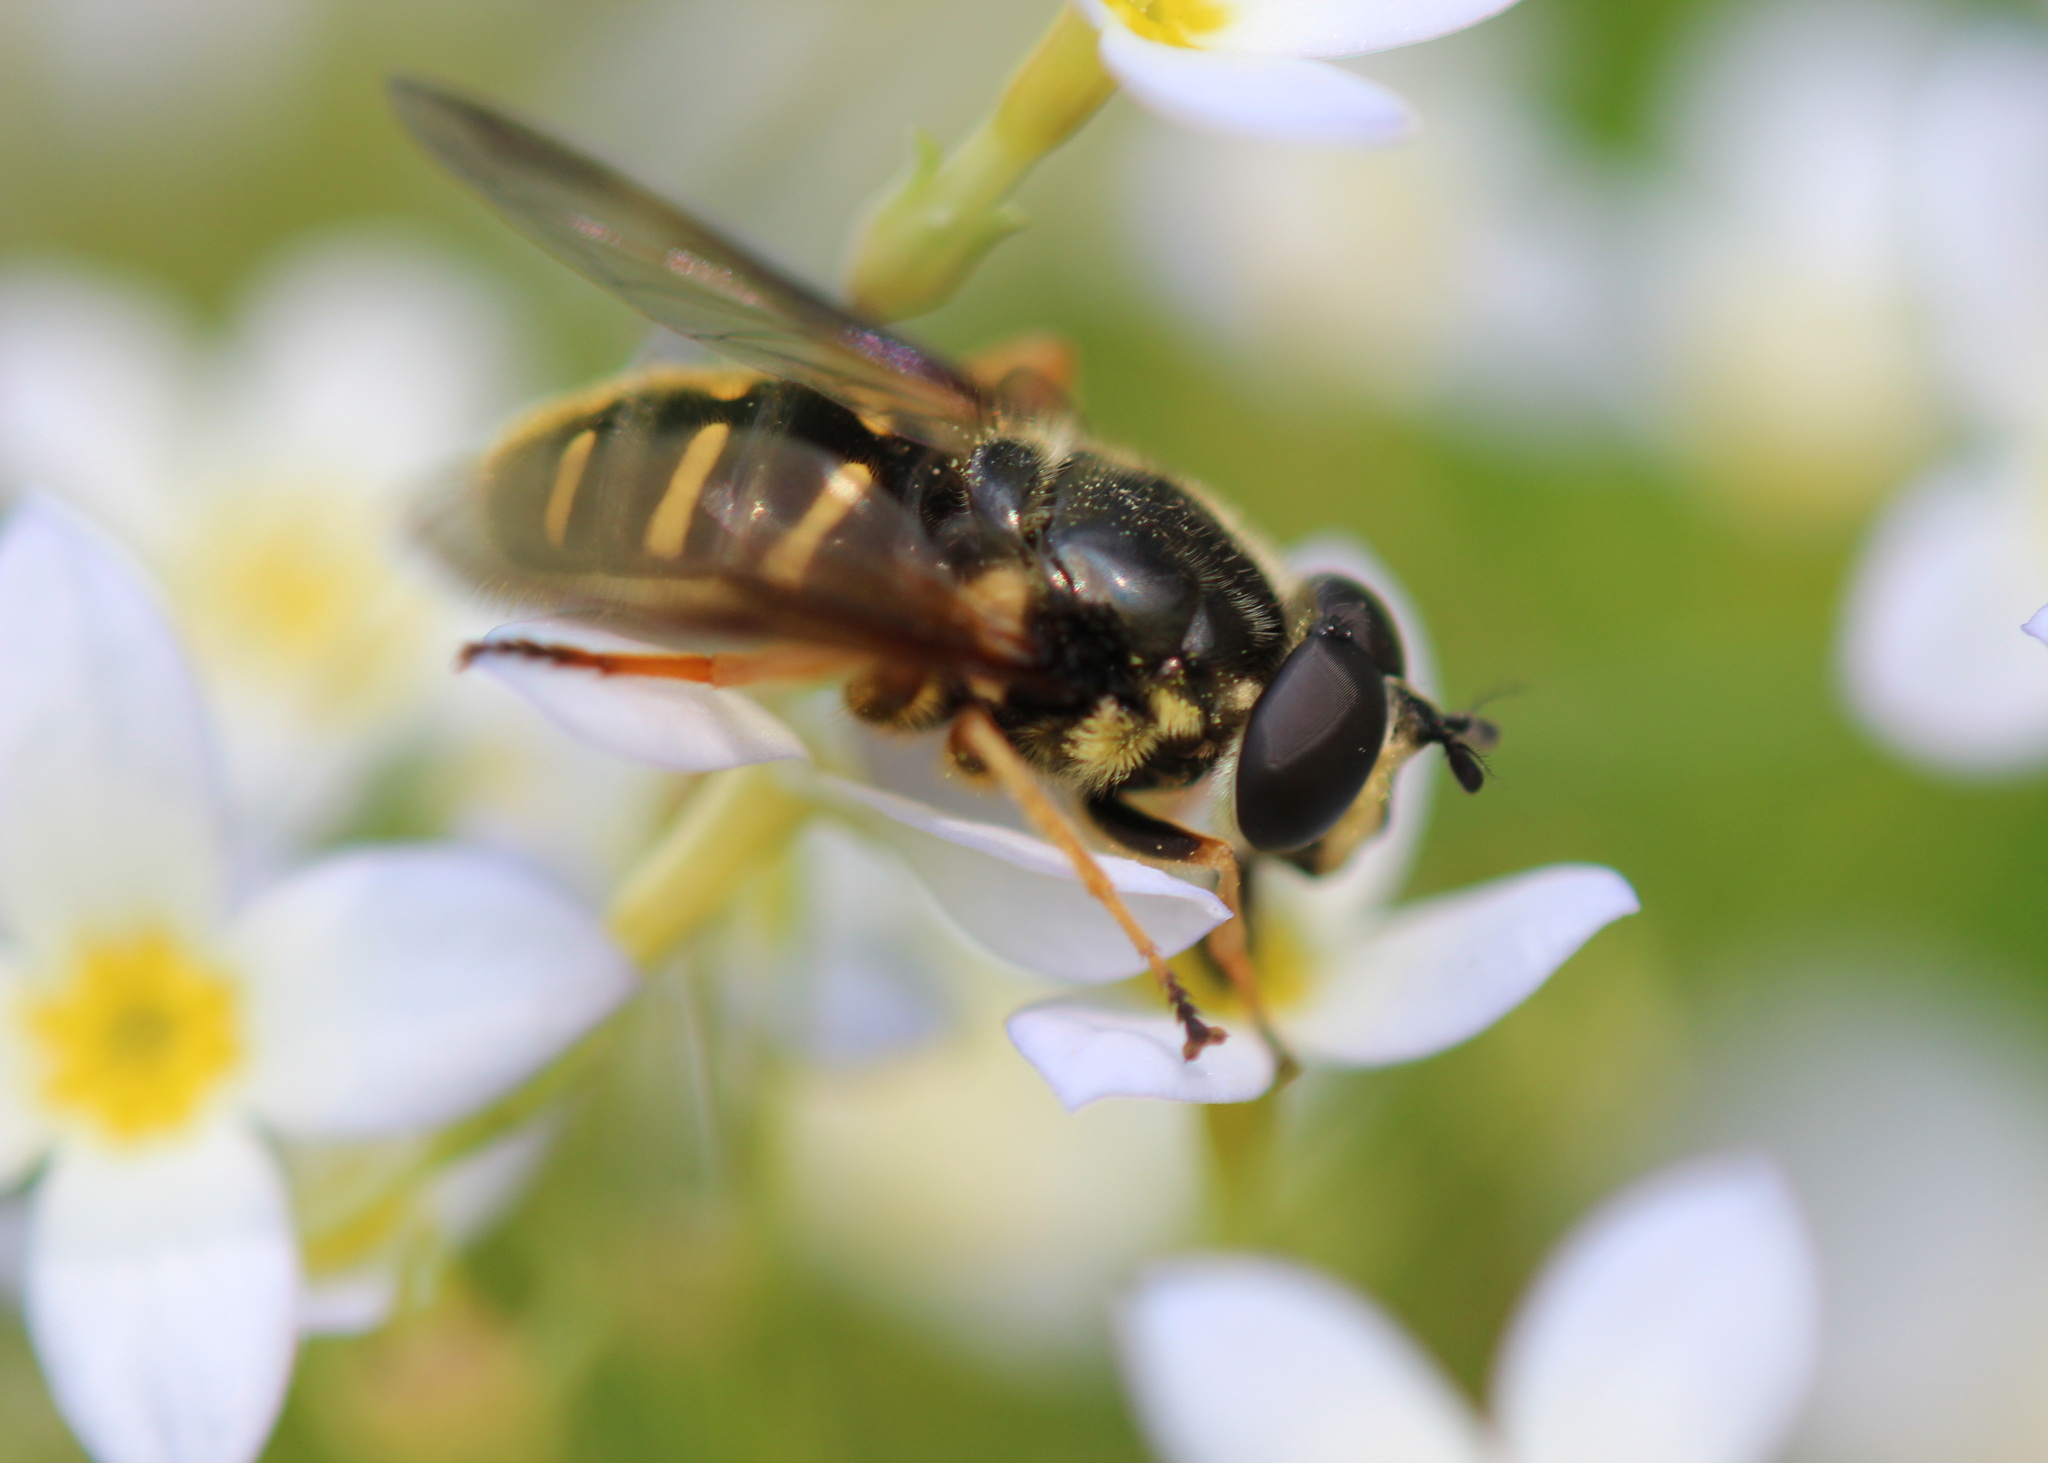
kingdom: Animalia
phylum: Arthropoda
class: Insecta
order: Diptera
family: Syrphidae
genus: Sericomyia
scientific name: Sericomyia chrysotoxoides
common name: Oblique-banded pond fly
